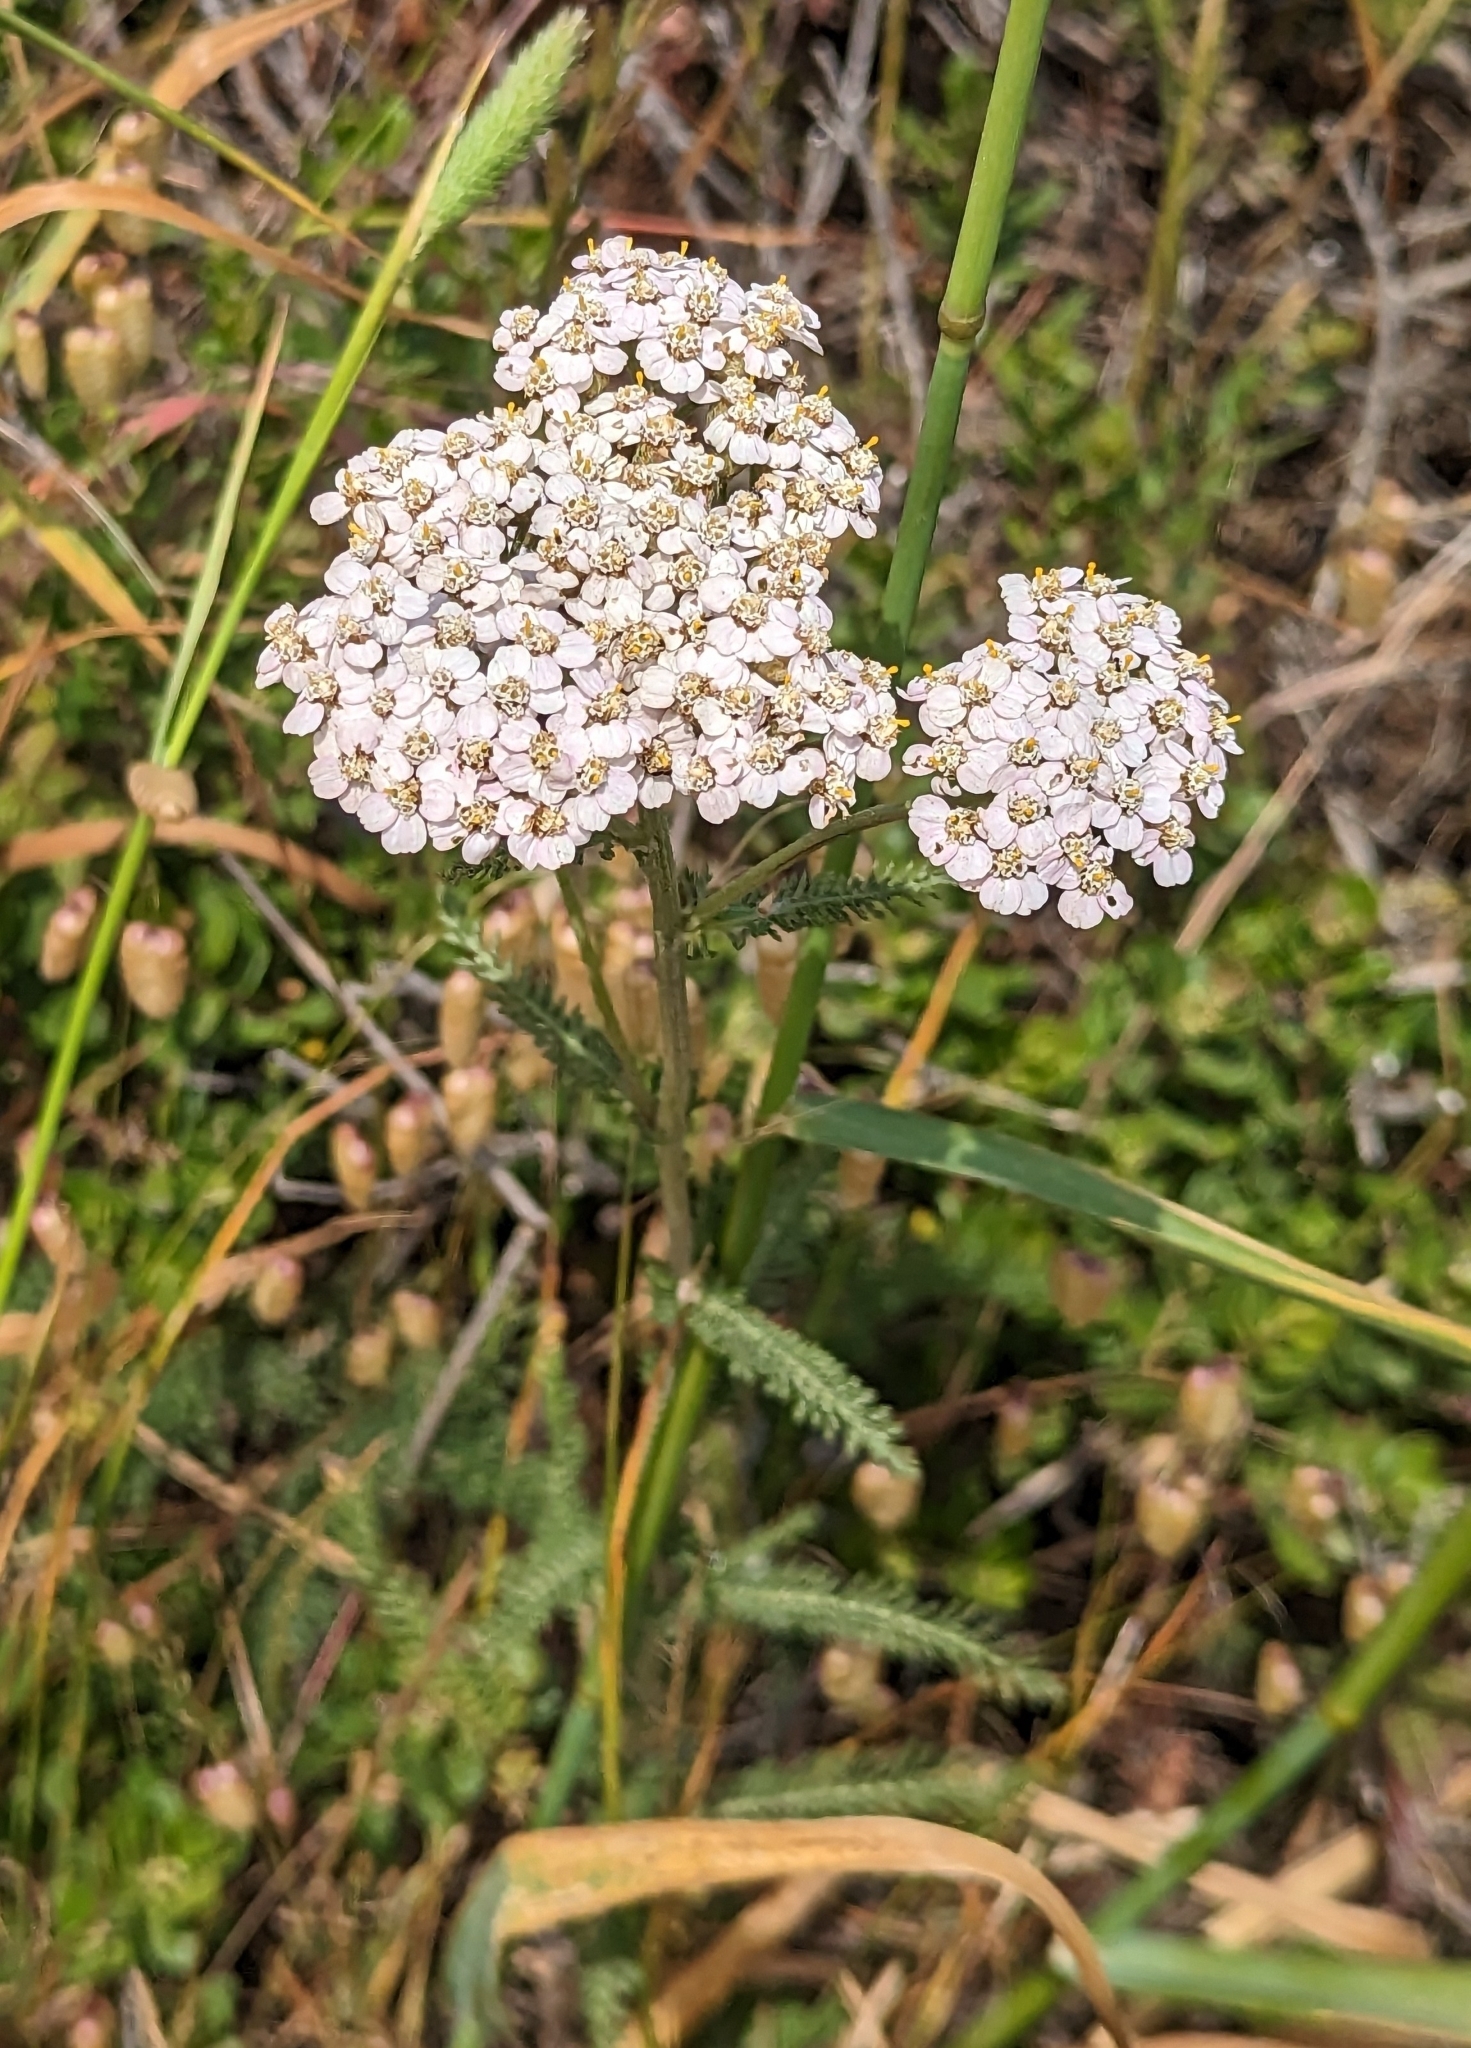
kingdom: Plantae
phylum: Tracheophyta
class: Magnoliopsida
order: Asterales
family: Asteraceae
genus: Achillea
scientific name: Achillea millefolium
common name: Yarrow
